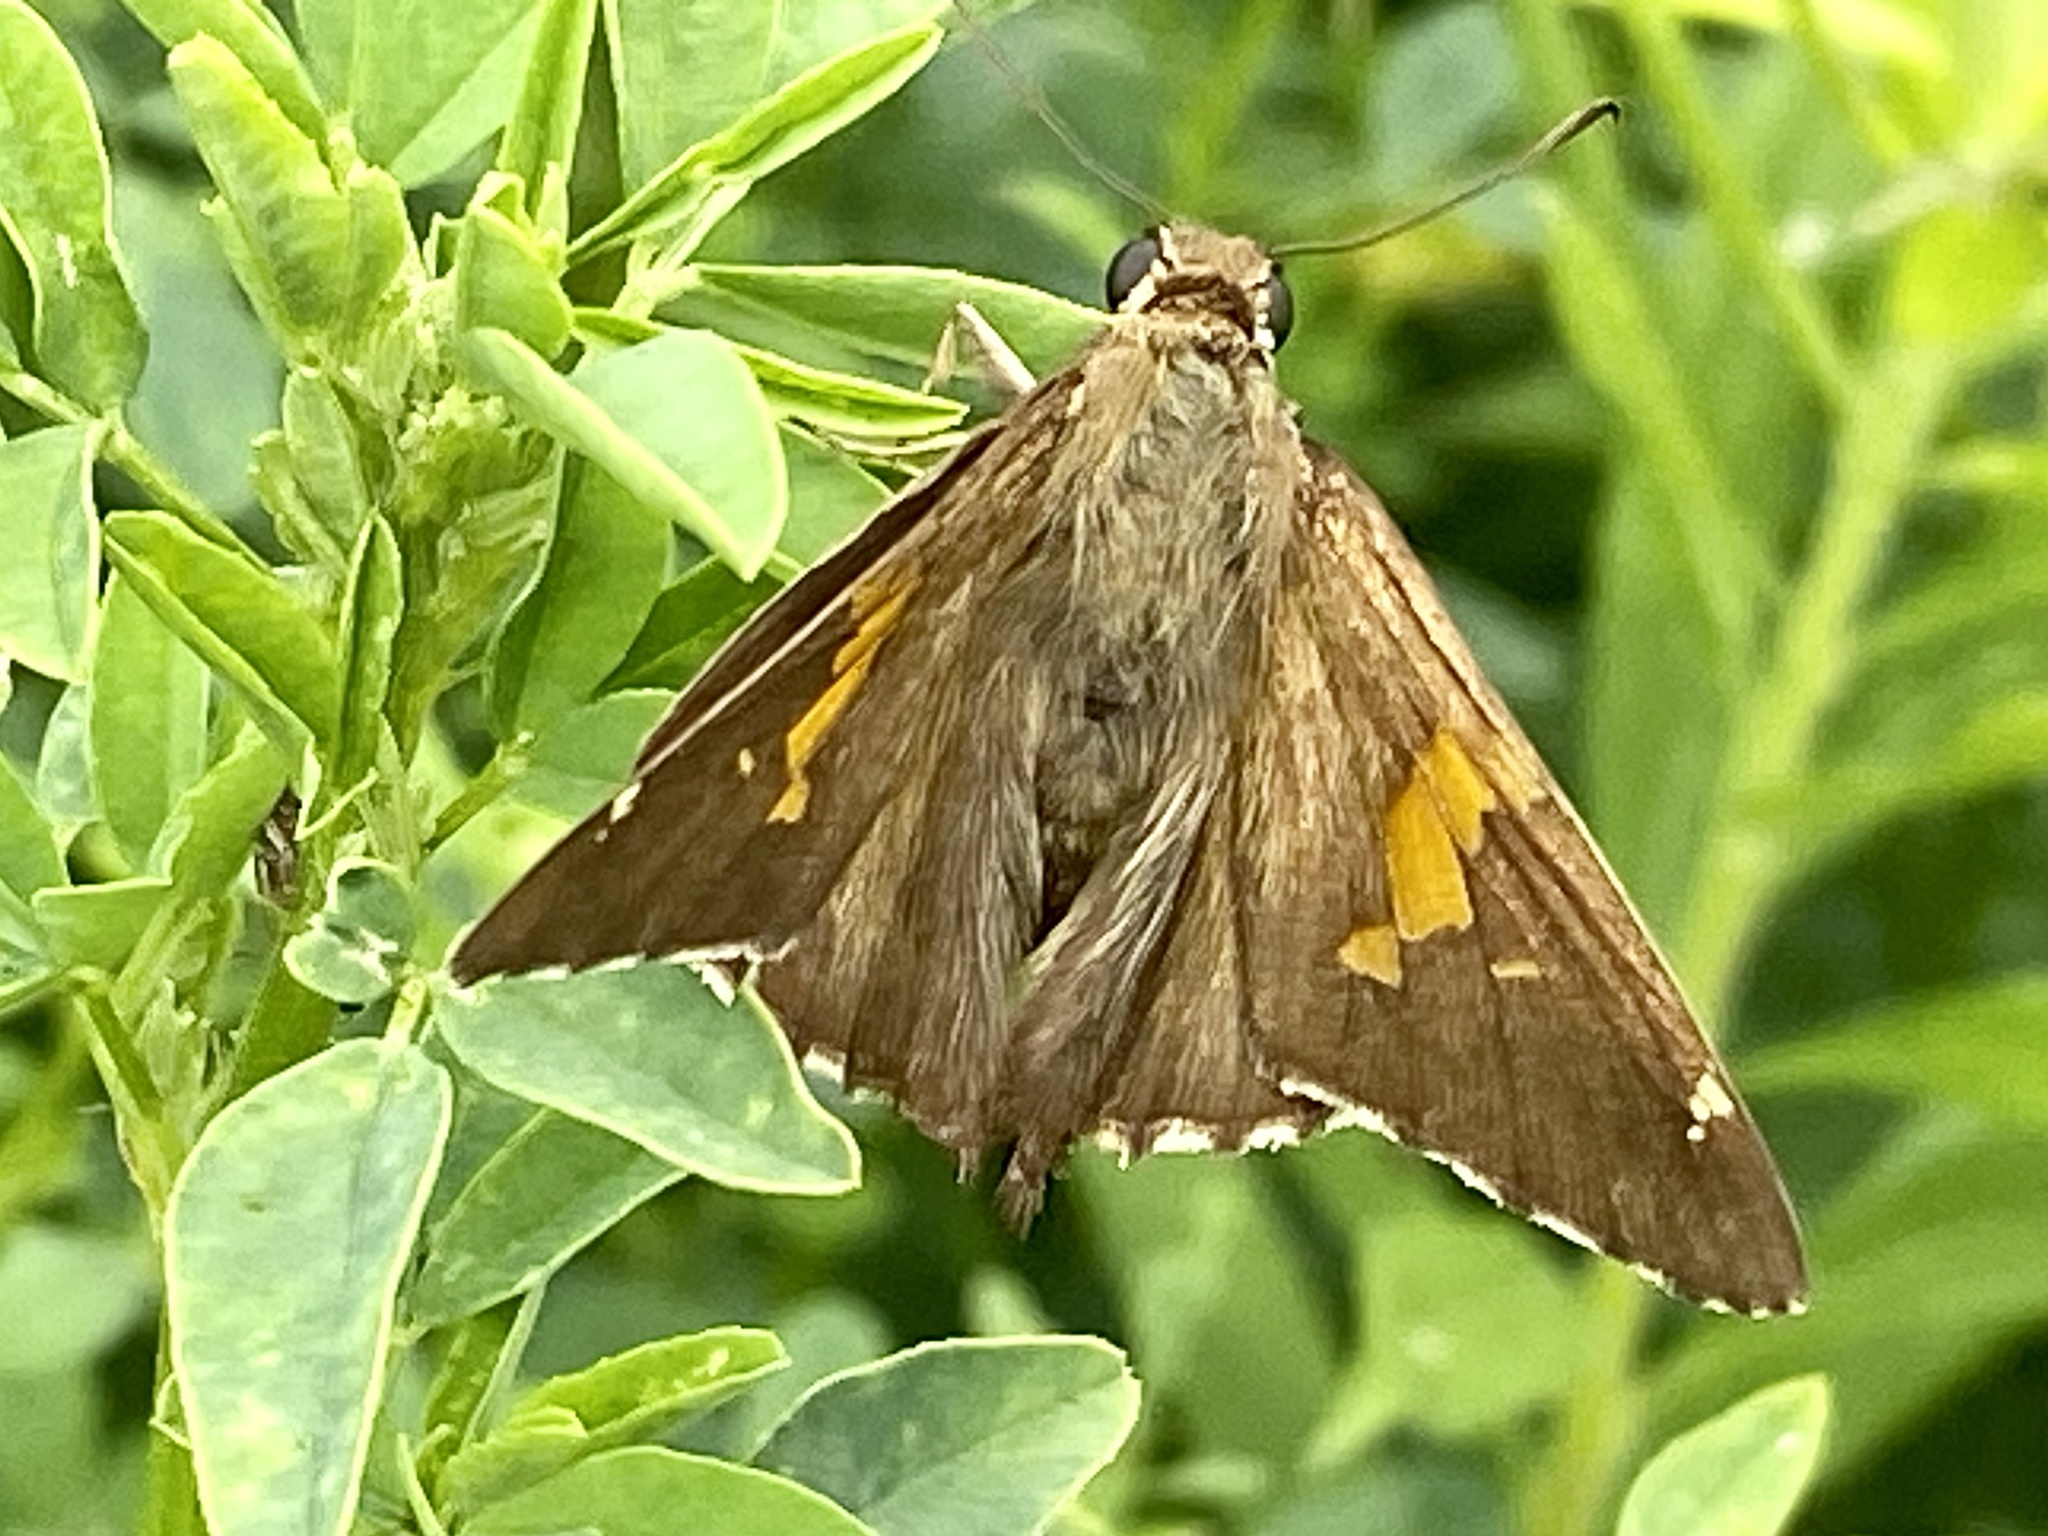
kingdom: Animalia
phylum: Arthropoda
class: Insecta
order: Lepidoptera
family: Hesperiidae
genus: Epargyreus
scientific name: Epargyreus clarus
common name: Silver-spotted skipper
